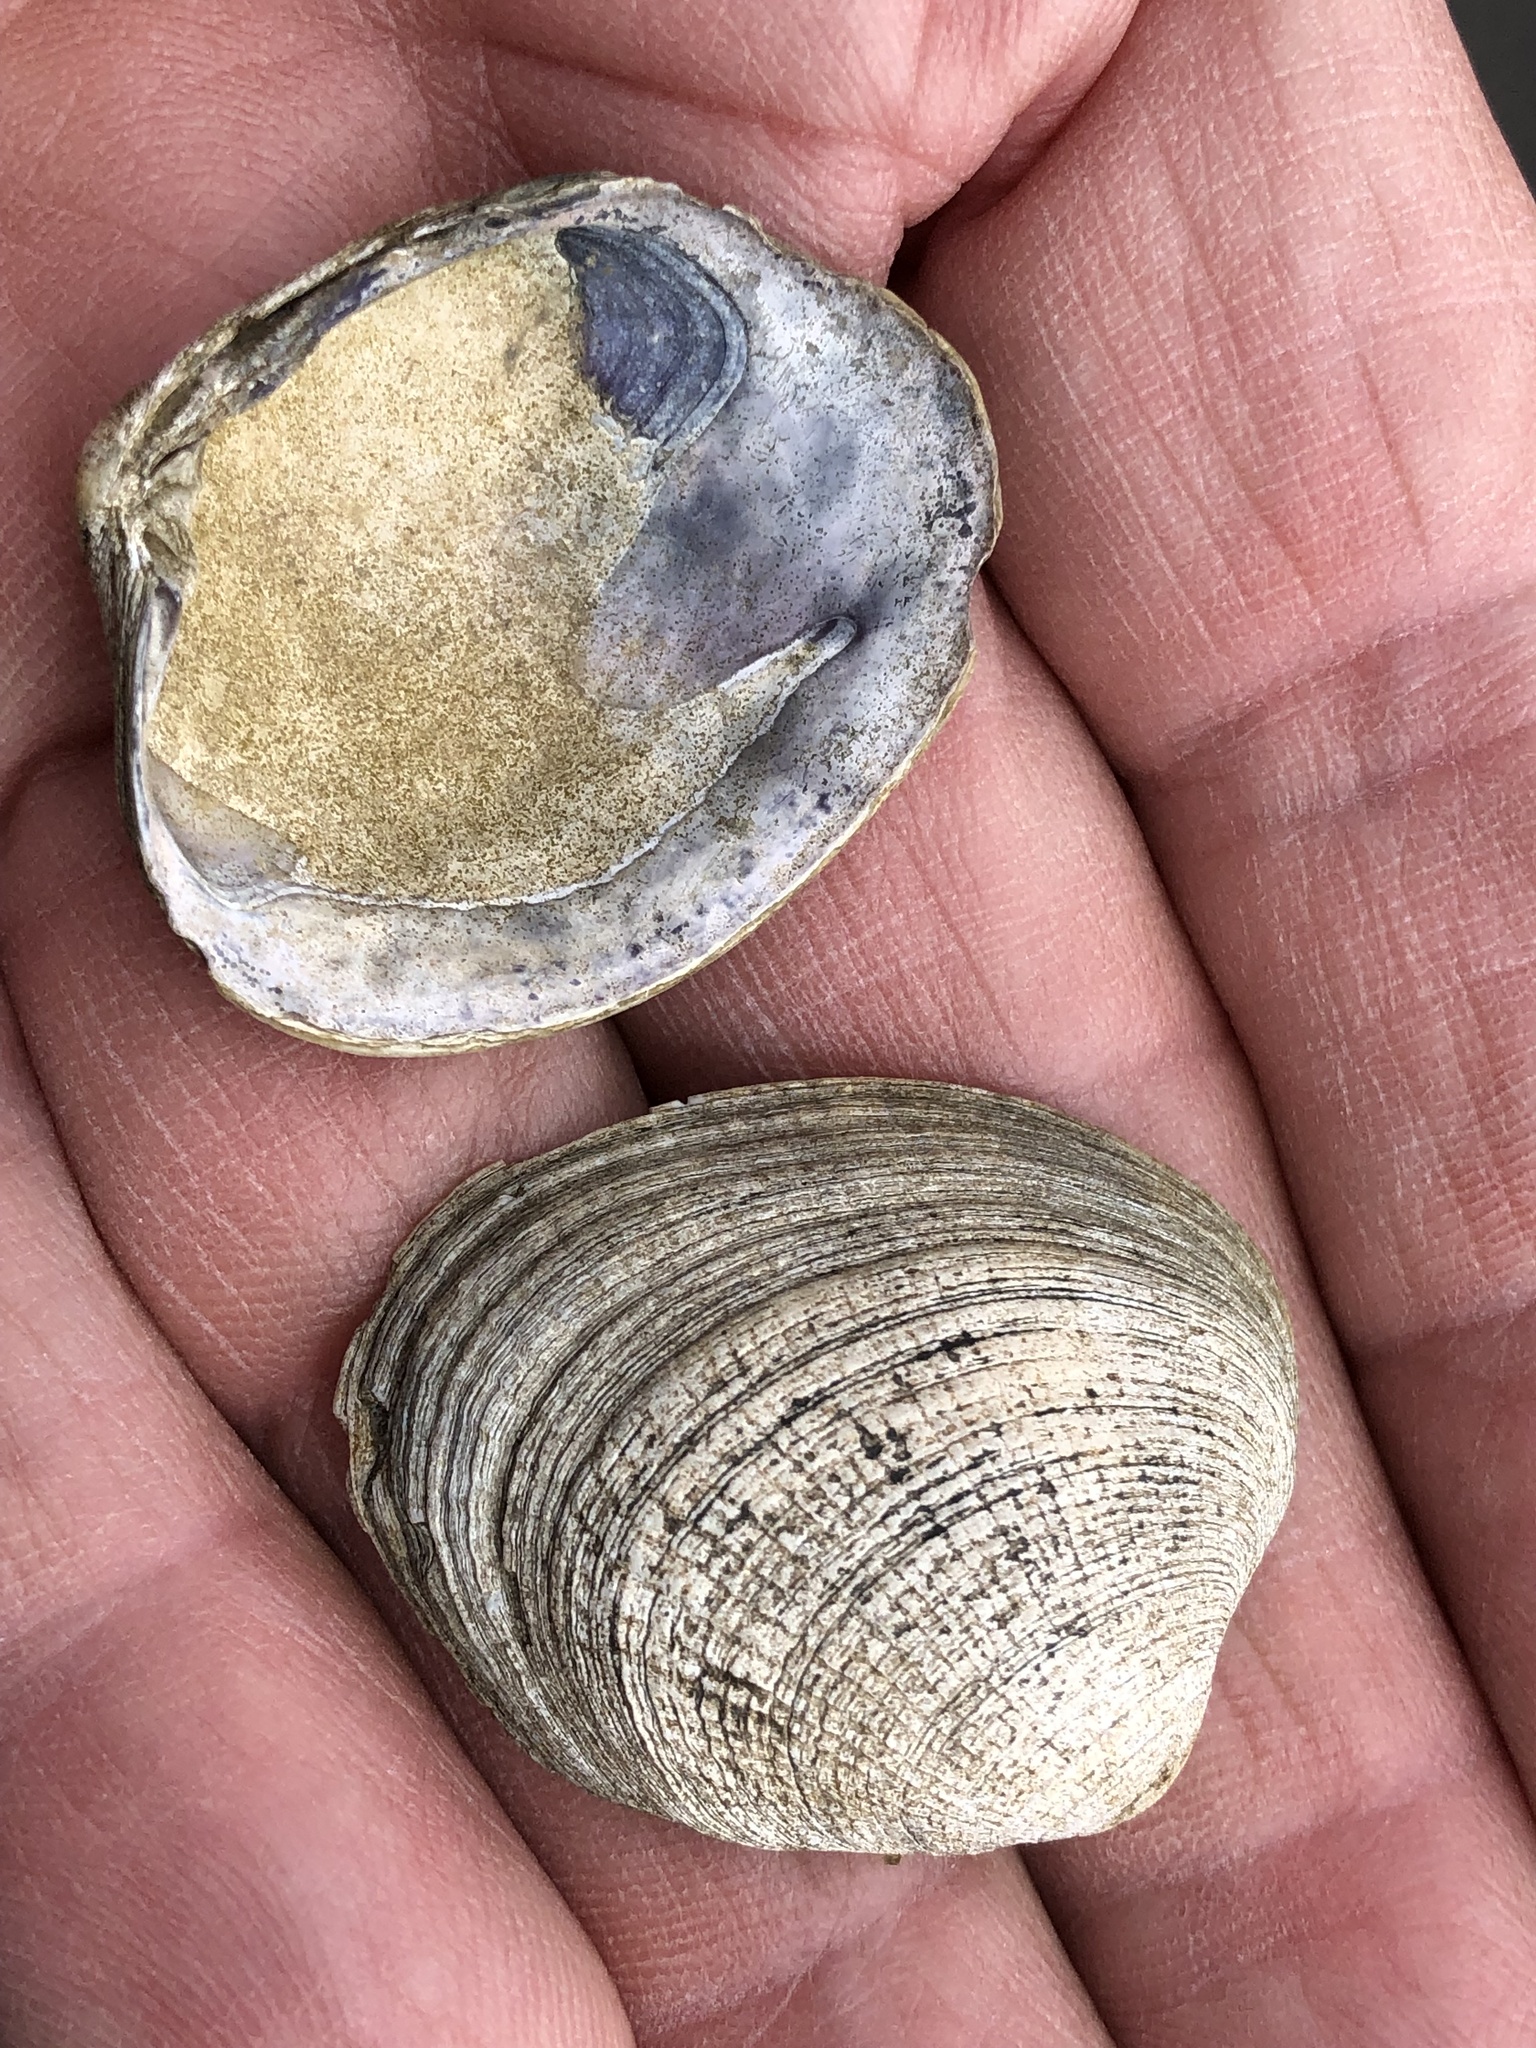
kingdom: Animalia
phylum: Mollusca
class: Bivalvia
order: Venerida
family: Veneridae
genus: Ruditapes
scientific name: Ruditapes philippinarum
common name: Manila clam
